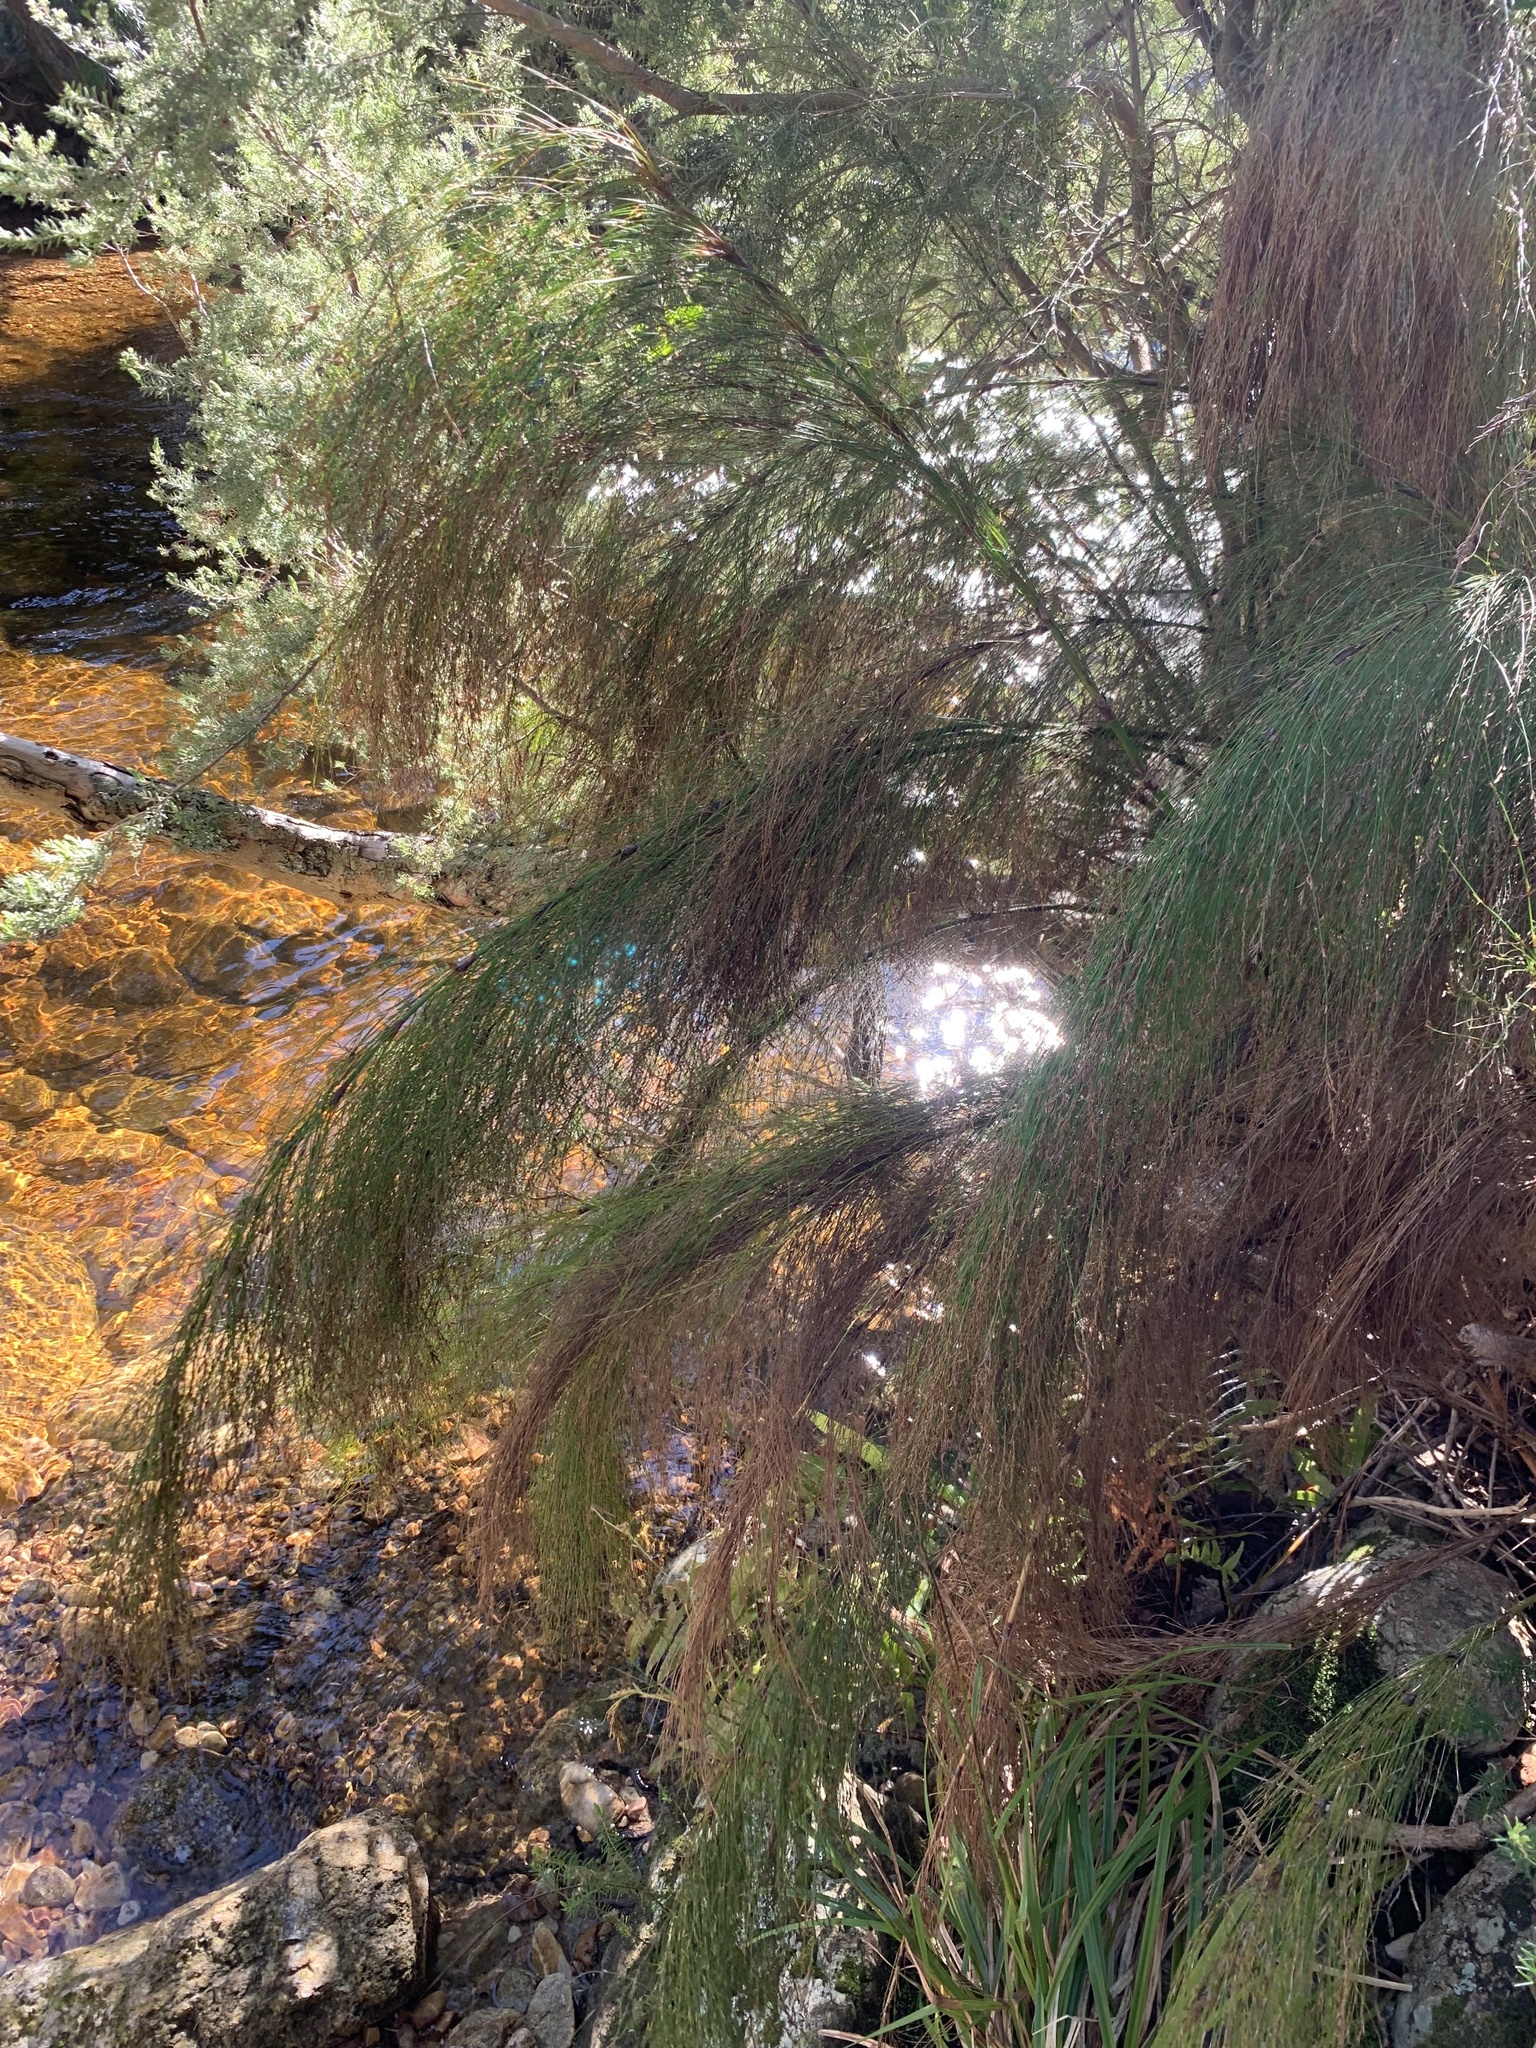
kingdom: Plantae
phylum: Tracheophyta
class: Liliopsida
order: Poales
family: Restionaceae
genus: Restio
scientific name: Restio subverticillatus
